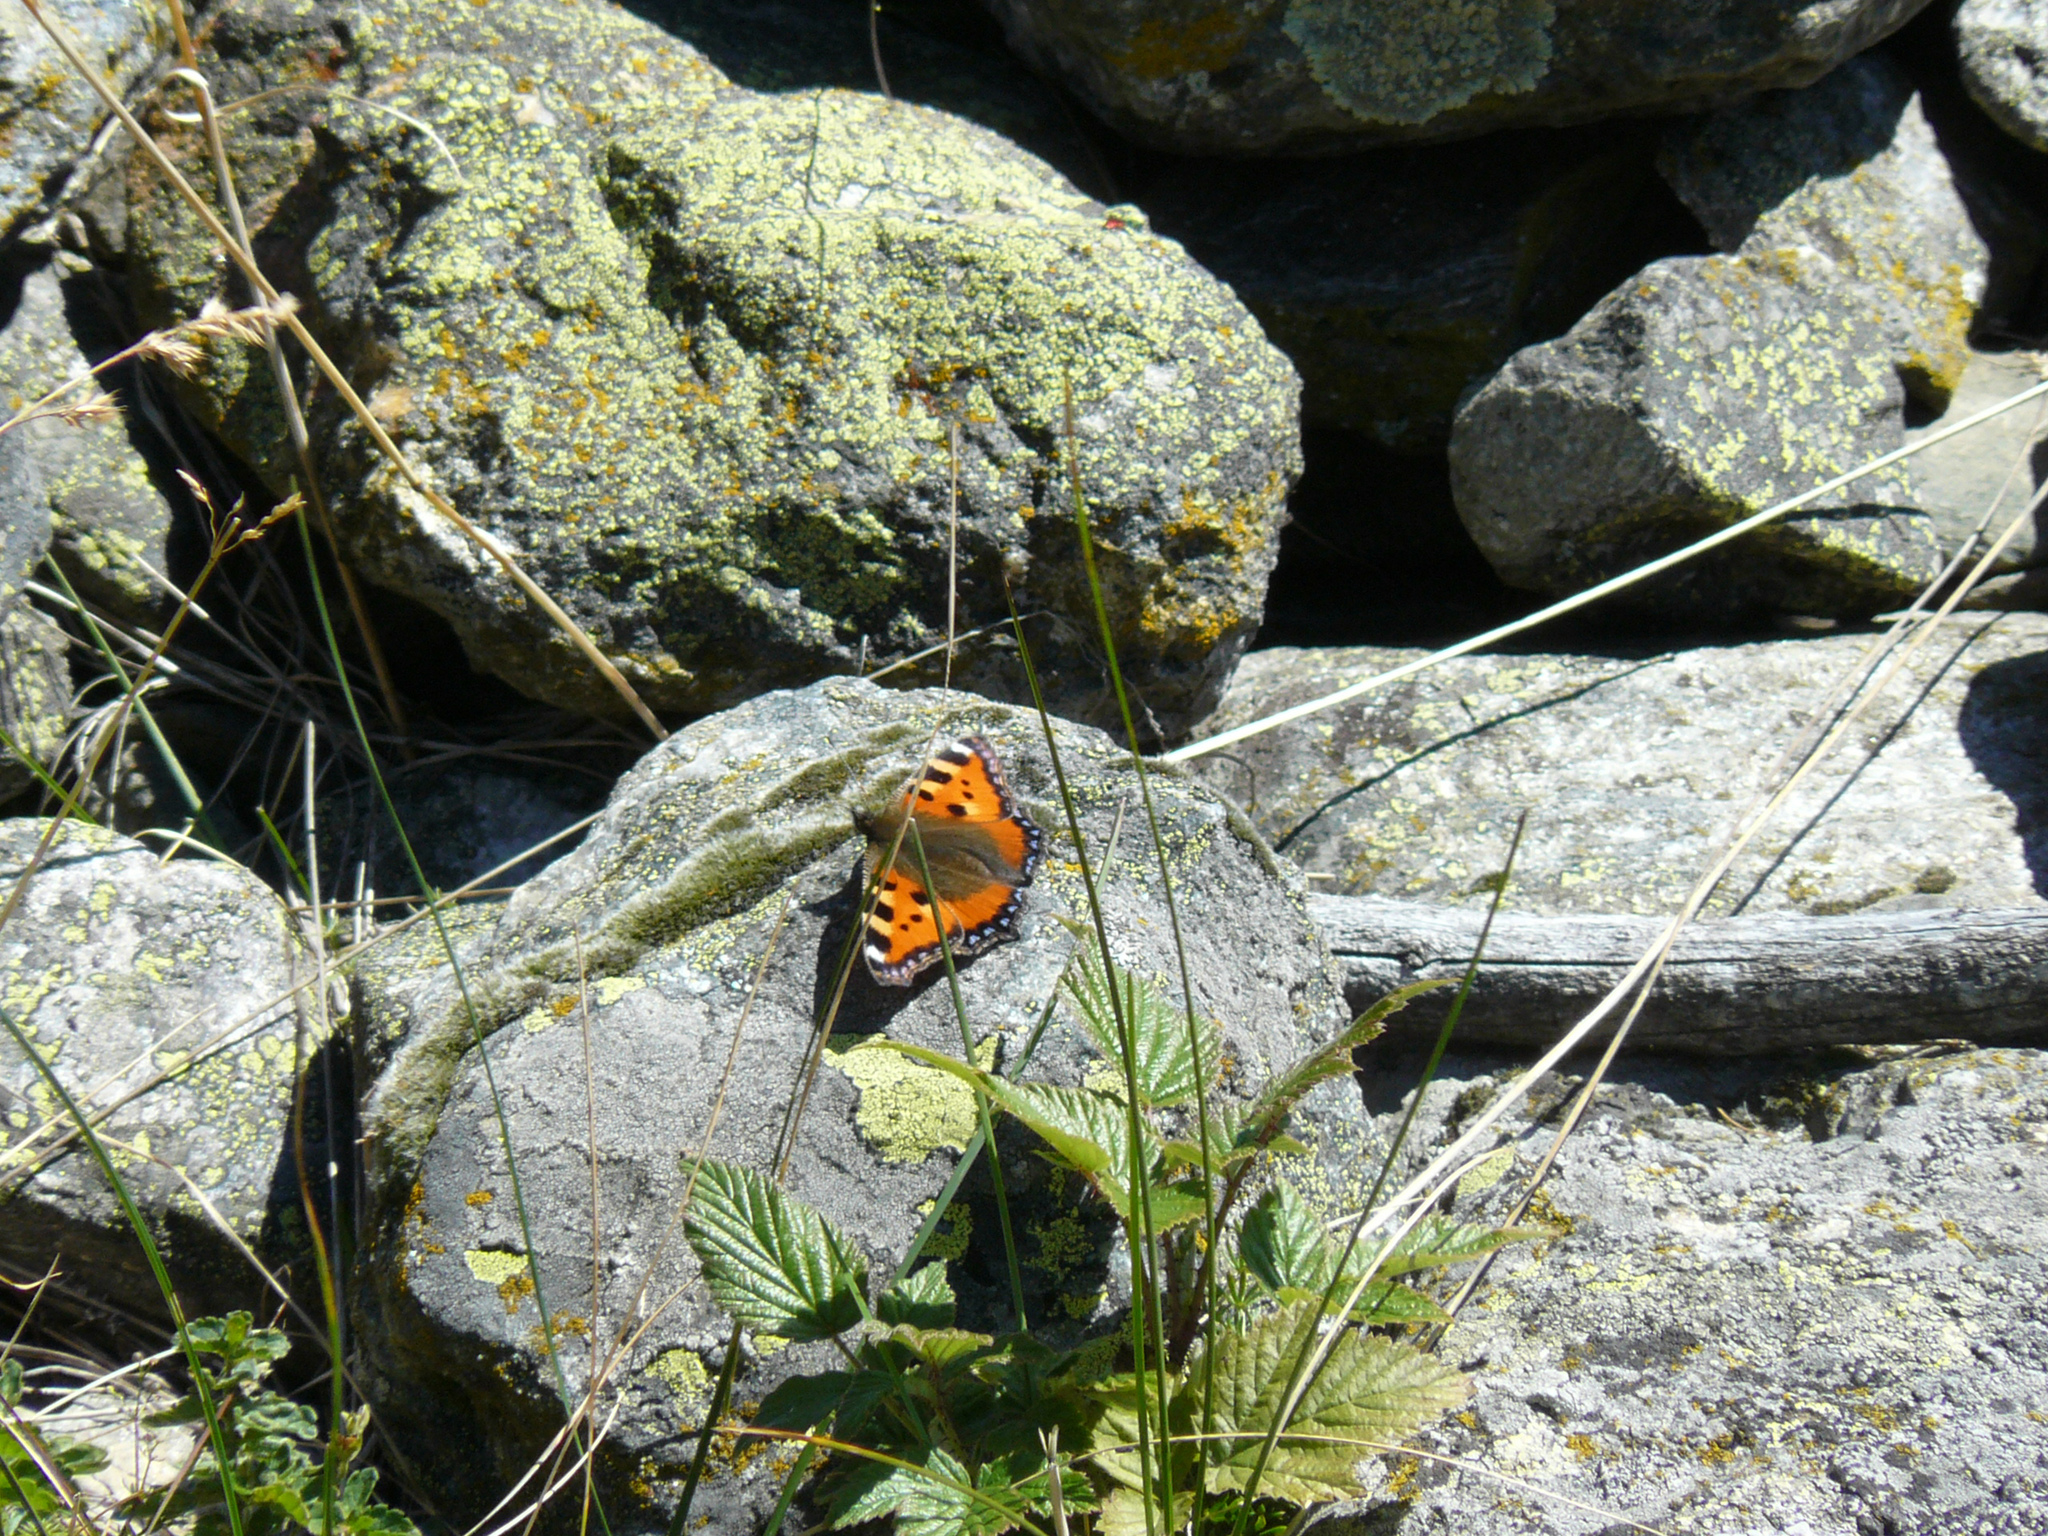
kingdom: Animalia
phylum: Arthropoda
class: Insecta
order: Lepidoptera
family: Nymphalidae
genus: Aglais
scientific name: Aglais urticae
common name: Small tortoiseshell
